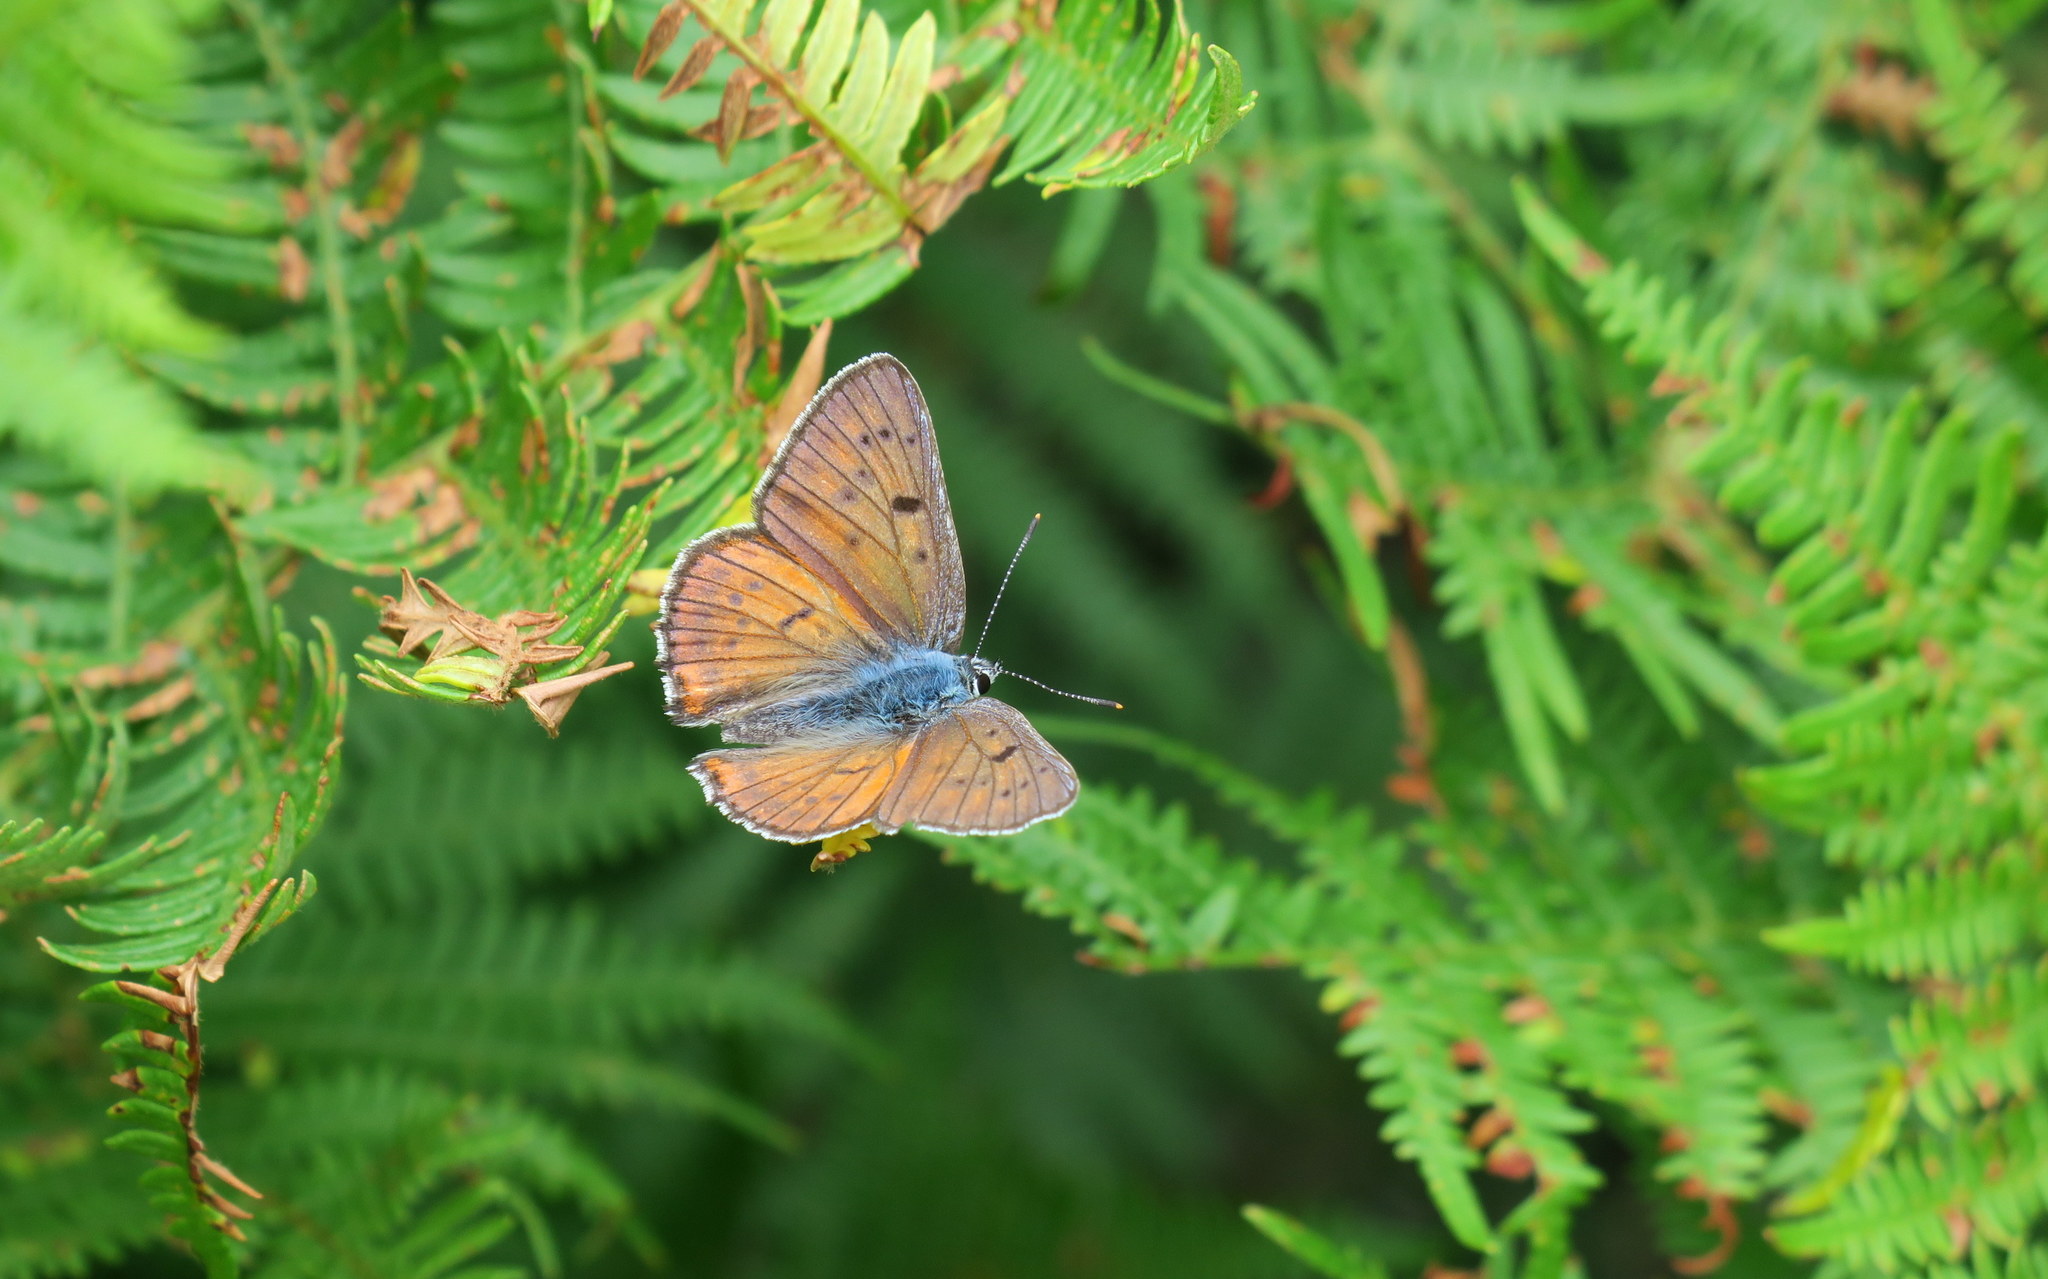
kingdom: Animalia
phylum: Arthropoda
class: Insecta
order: Lepidoptera
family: Lycaenidae
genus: Lycaena
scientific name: Lycaena alciphron
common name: Purple-shot copper
